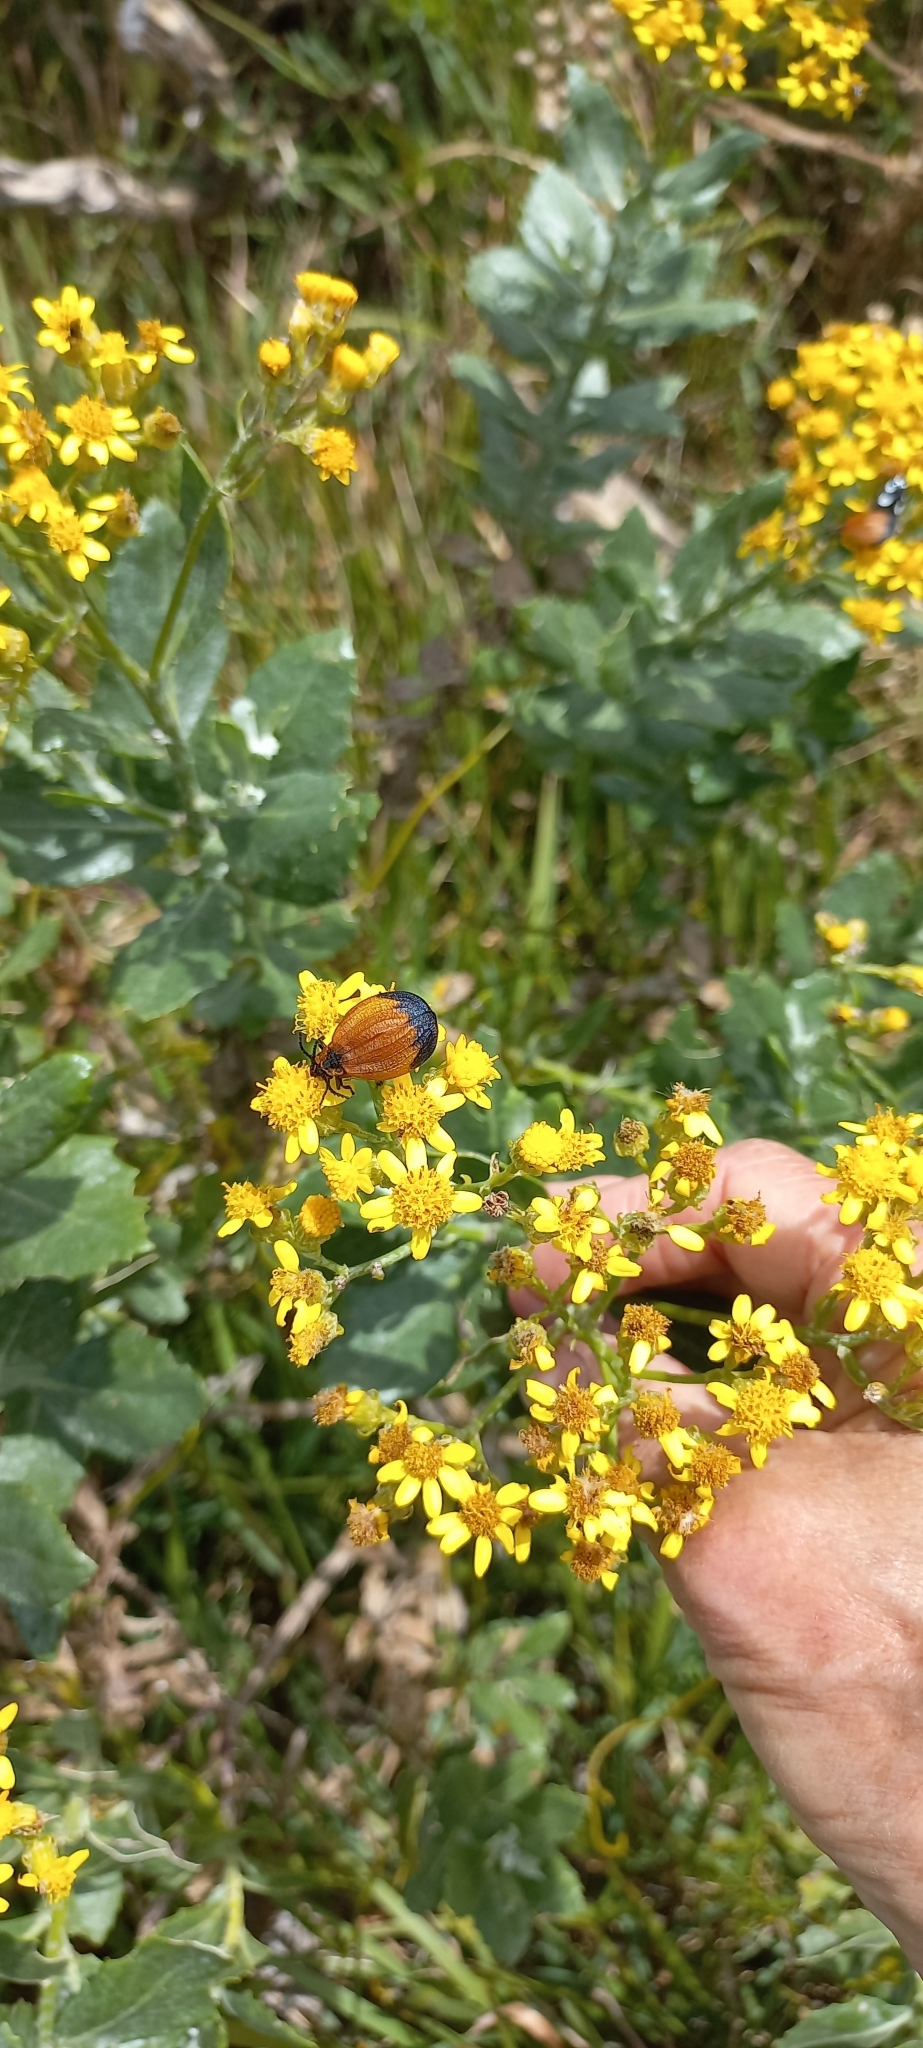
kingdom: Plantae
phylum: Tracheophyta
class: Magnoliopsida
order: Asterales
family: Asteraceae
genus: Senecio
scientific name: Senecio halimifolius
